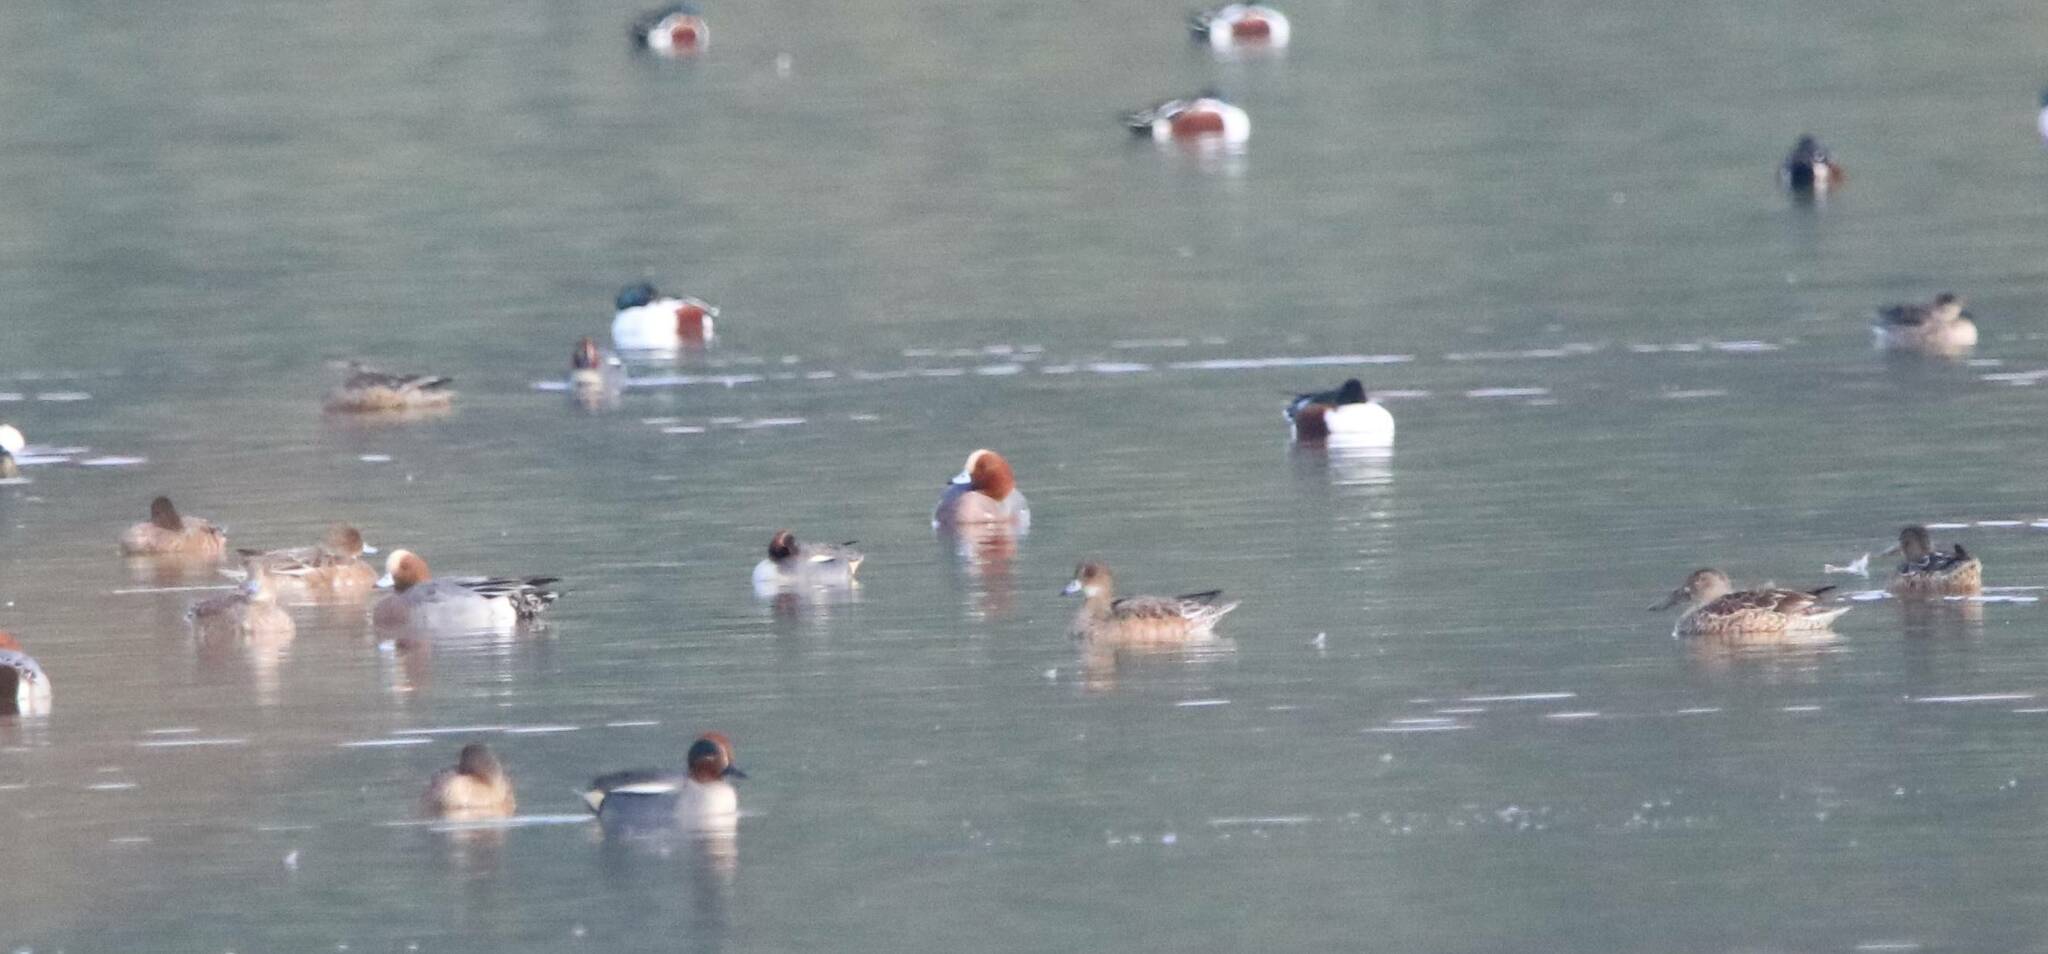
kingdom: Animalia
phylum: Chordata
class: Aves
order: Anseriformes
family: Anatidae
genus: Mareca
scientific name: Mareca penelope
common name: Eurasian wigeon
